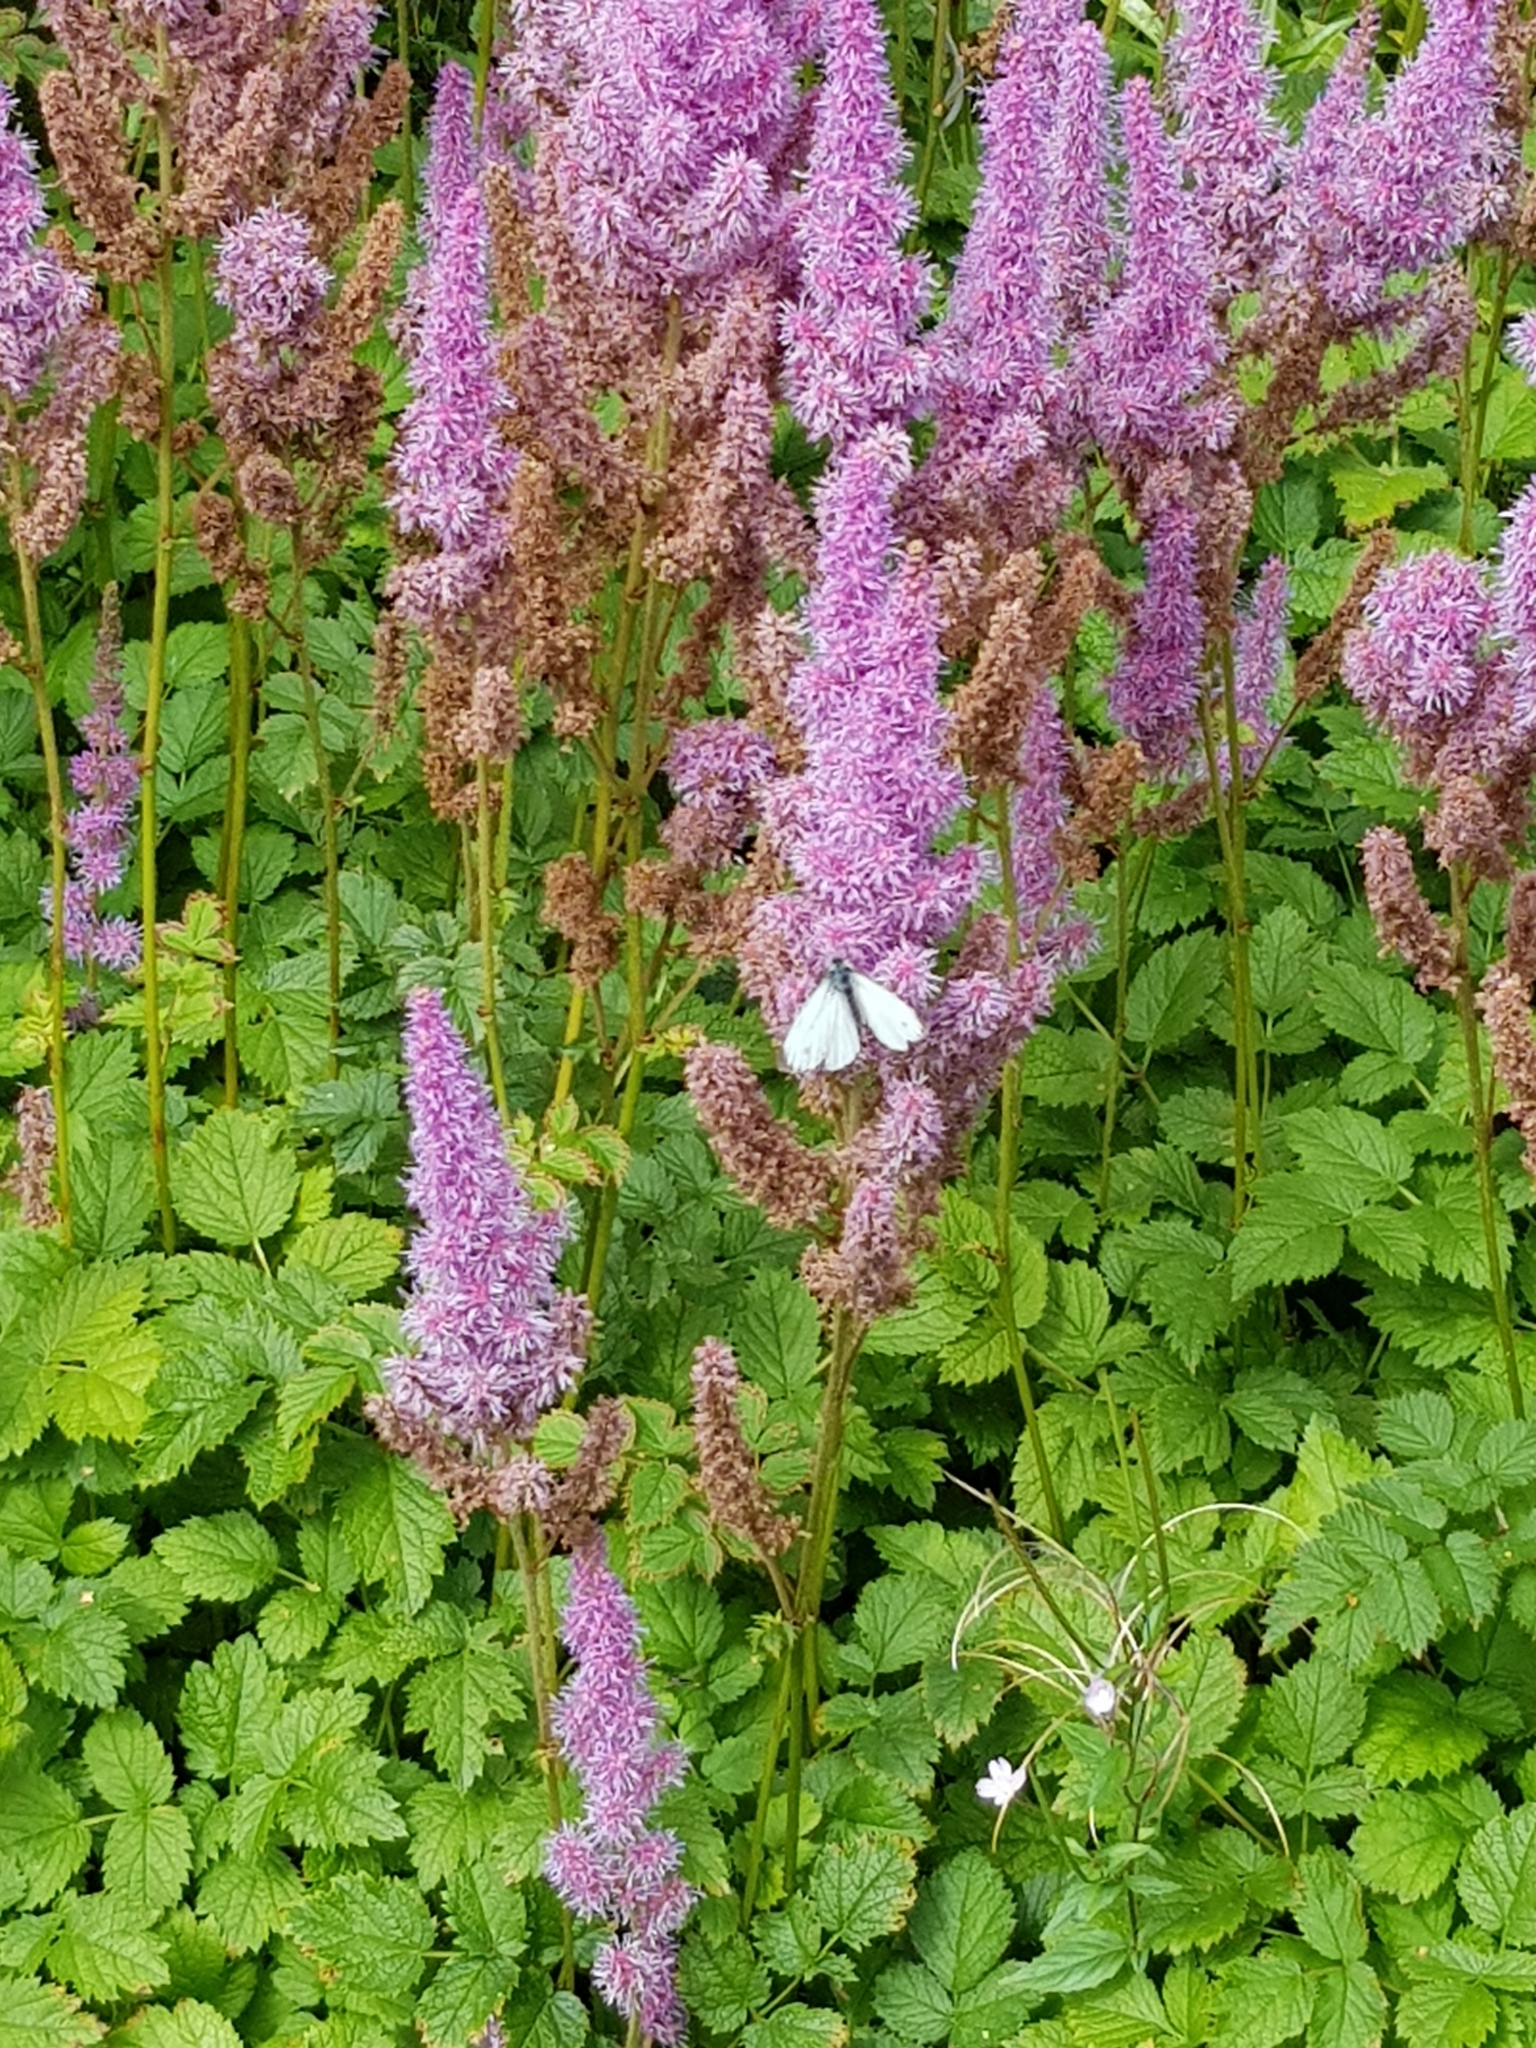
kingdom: Animalia
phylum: Arthropoda
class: Insecta
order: Lepidoptera
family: Pieridae
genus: Pieris
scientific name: Pieris napi
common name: Green-veined white
